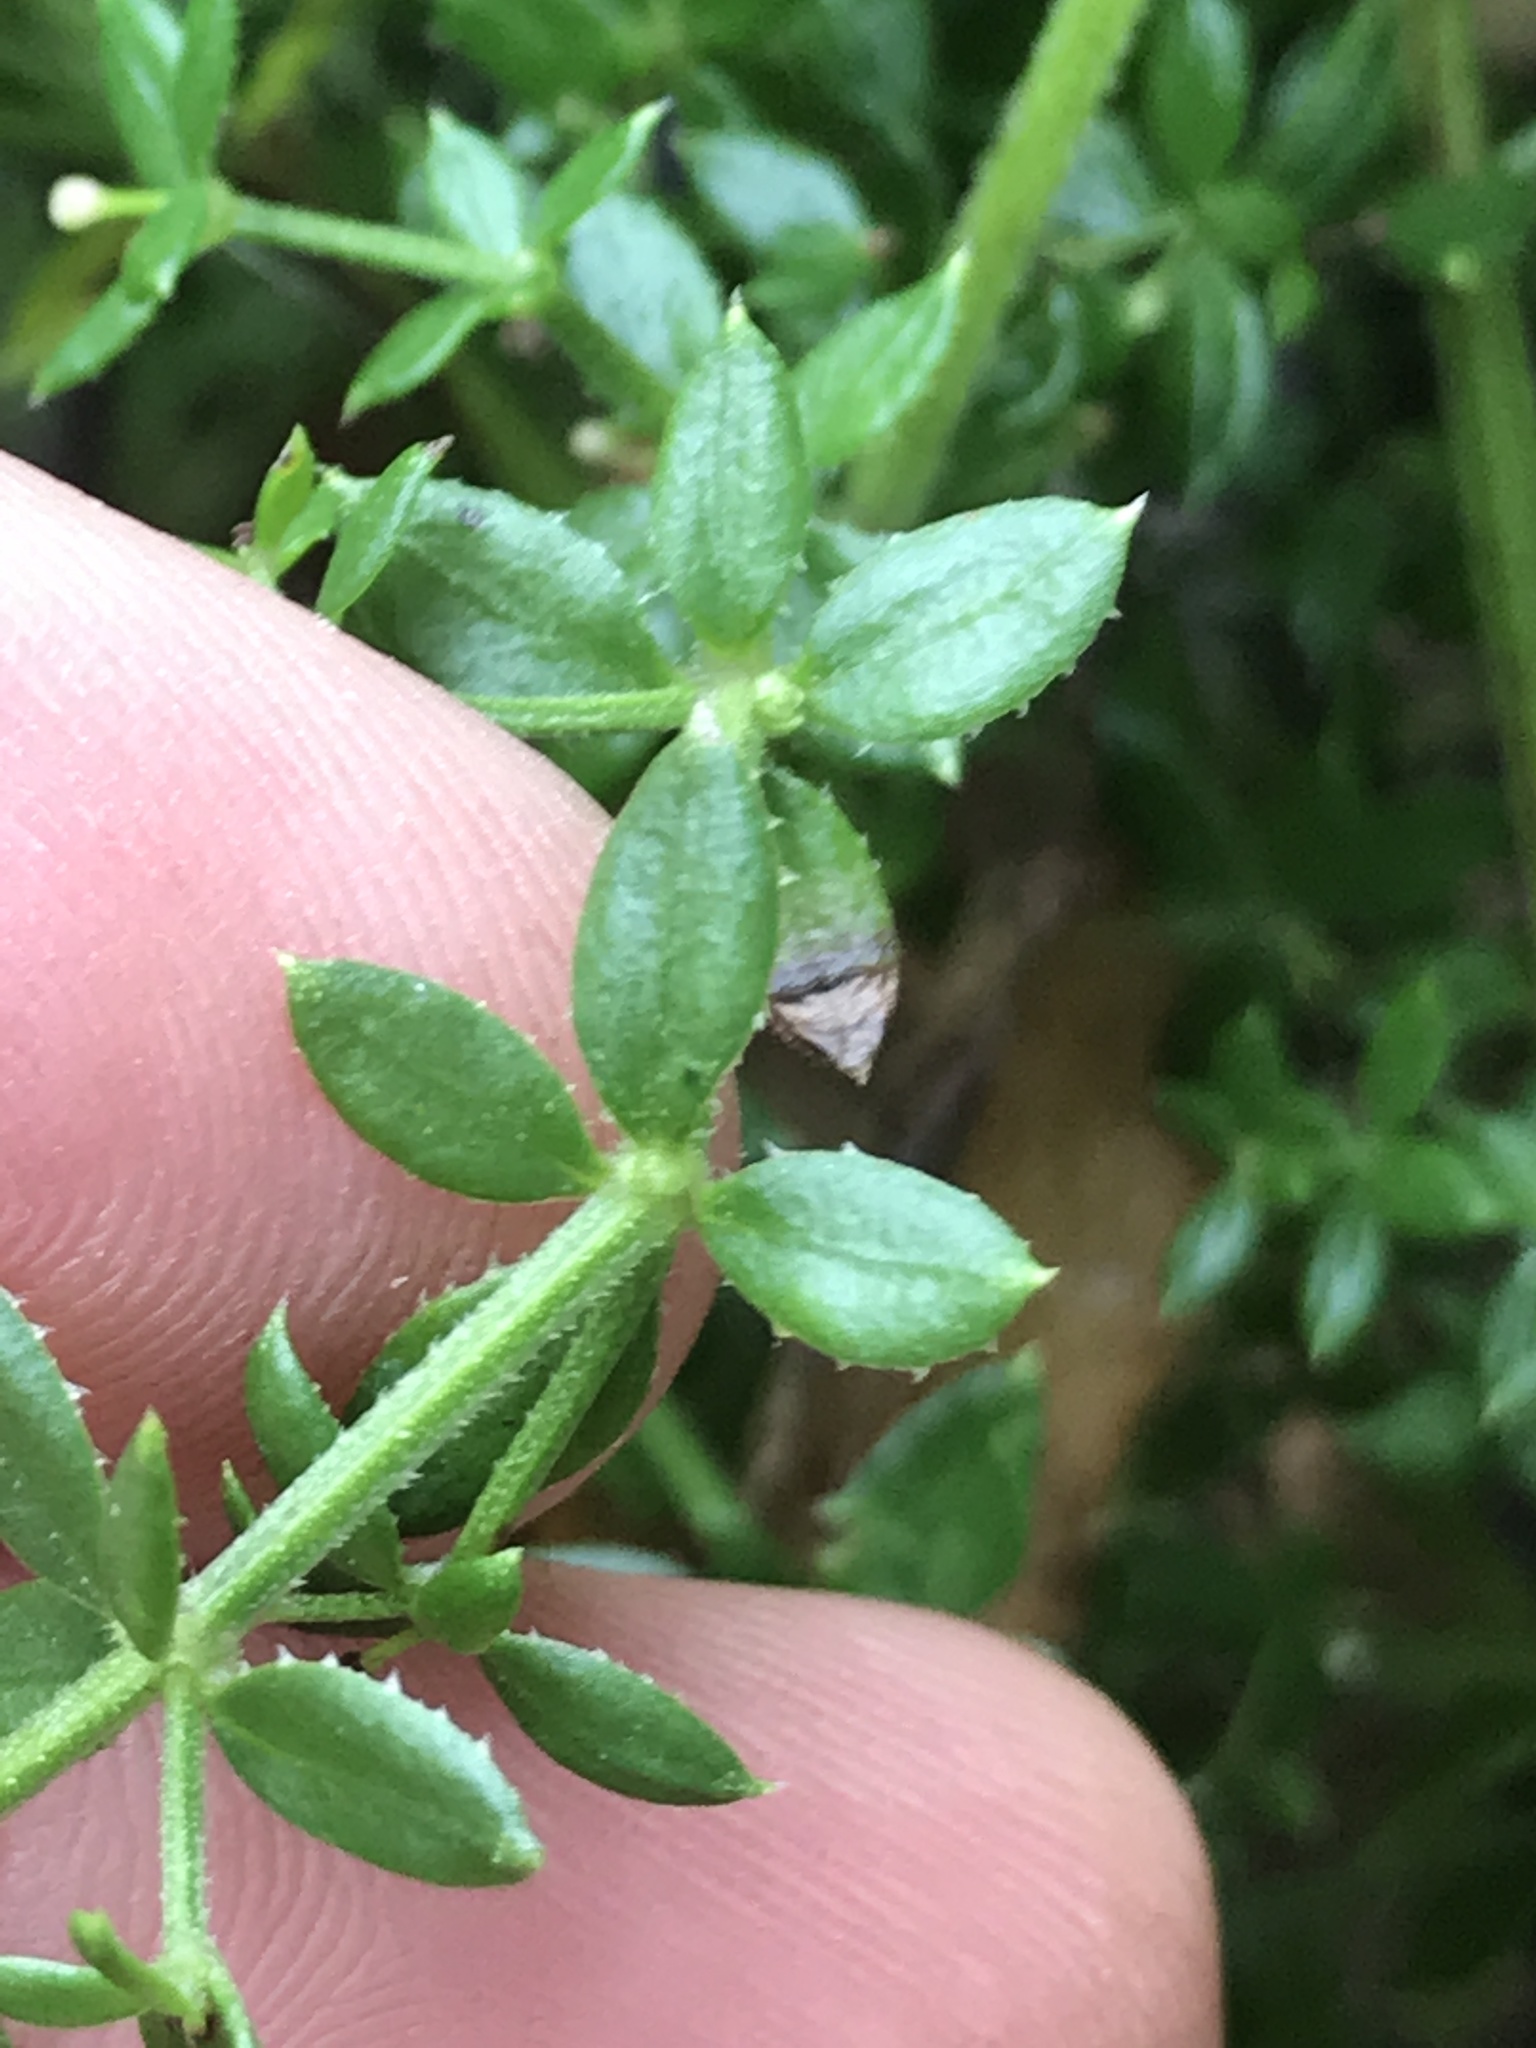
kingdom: Plantae
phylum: Tracheophyta
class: Magnoliopsida
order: Gentianales
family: Rubiaceae
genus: Galium
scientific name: Galium cliftonsmithii
